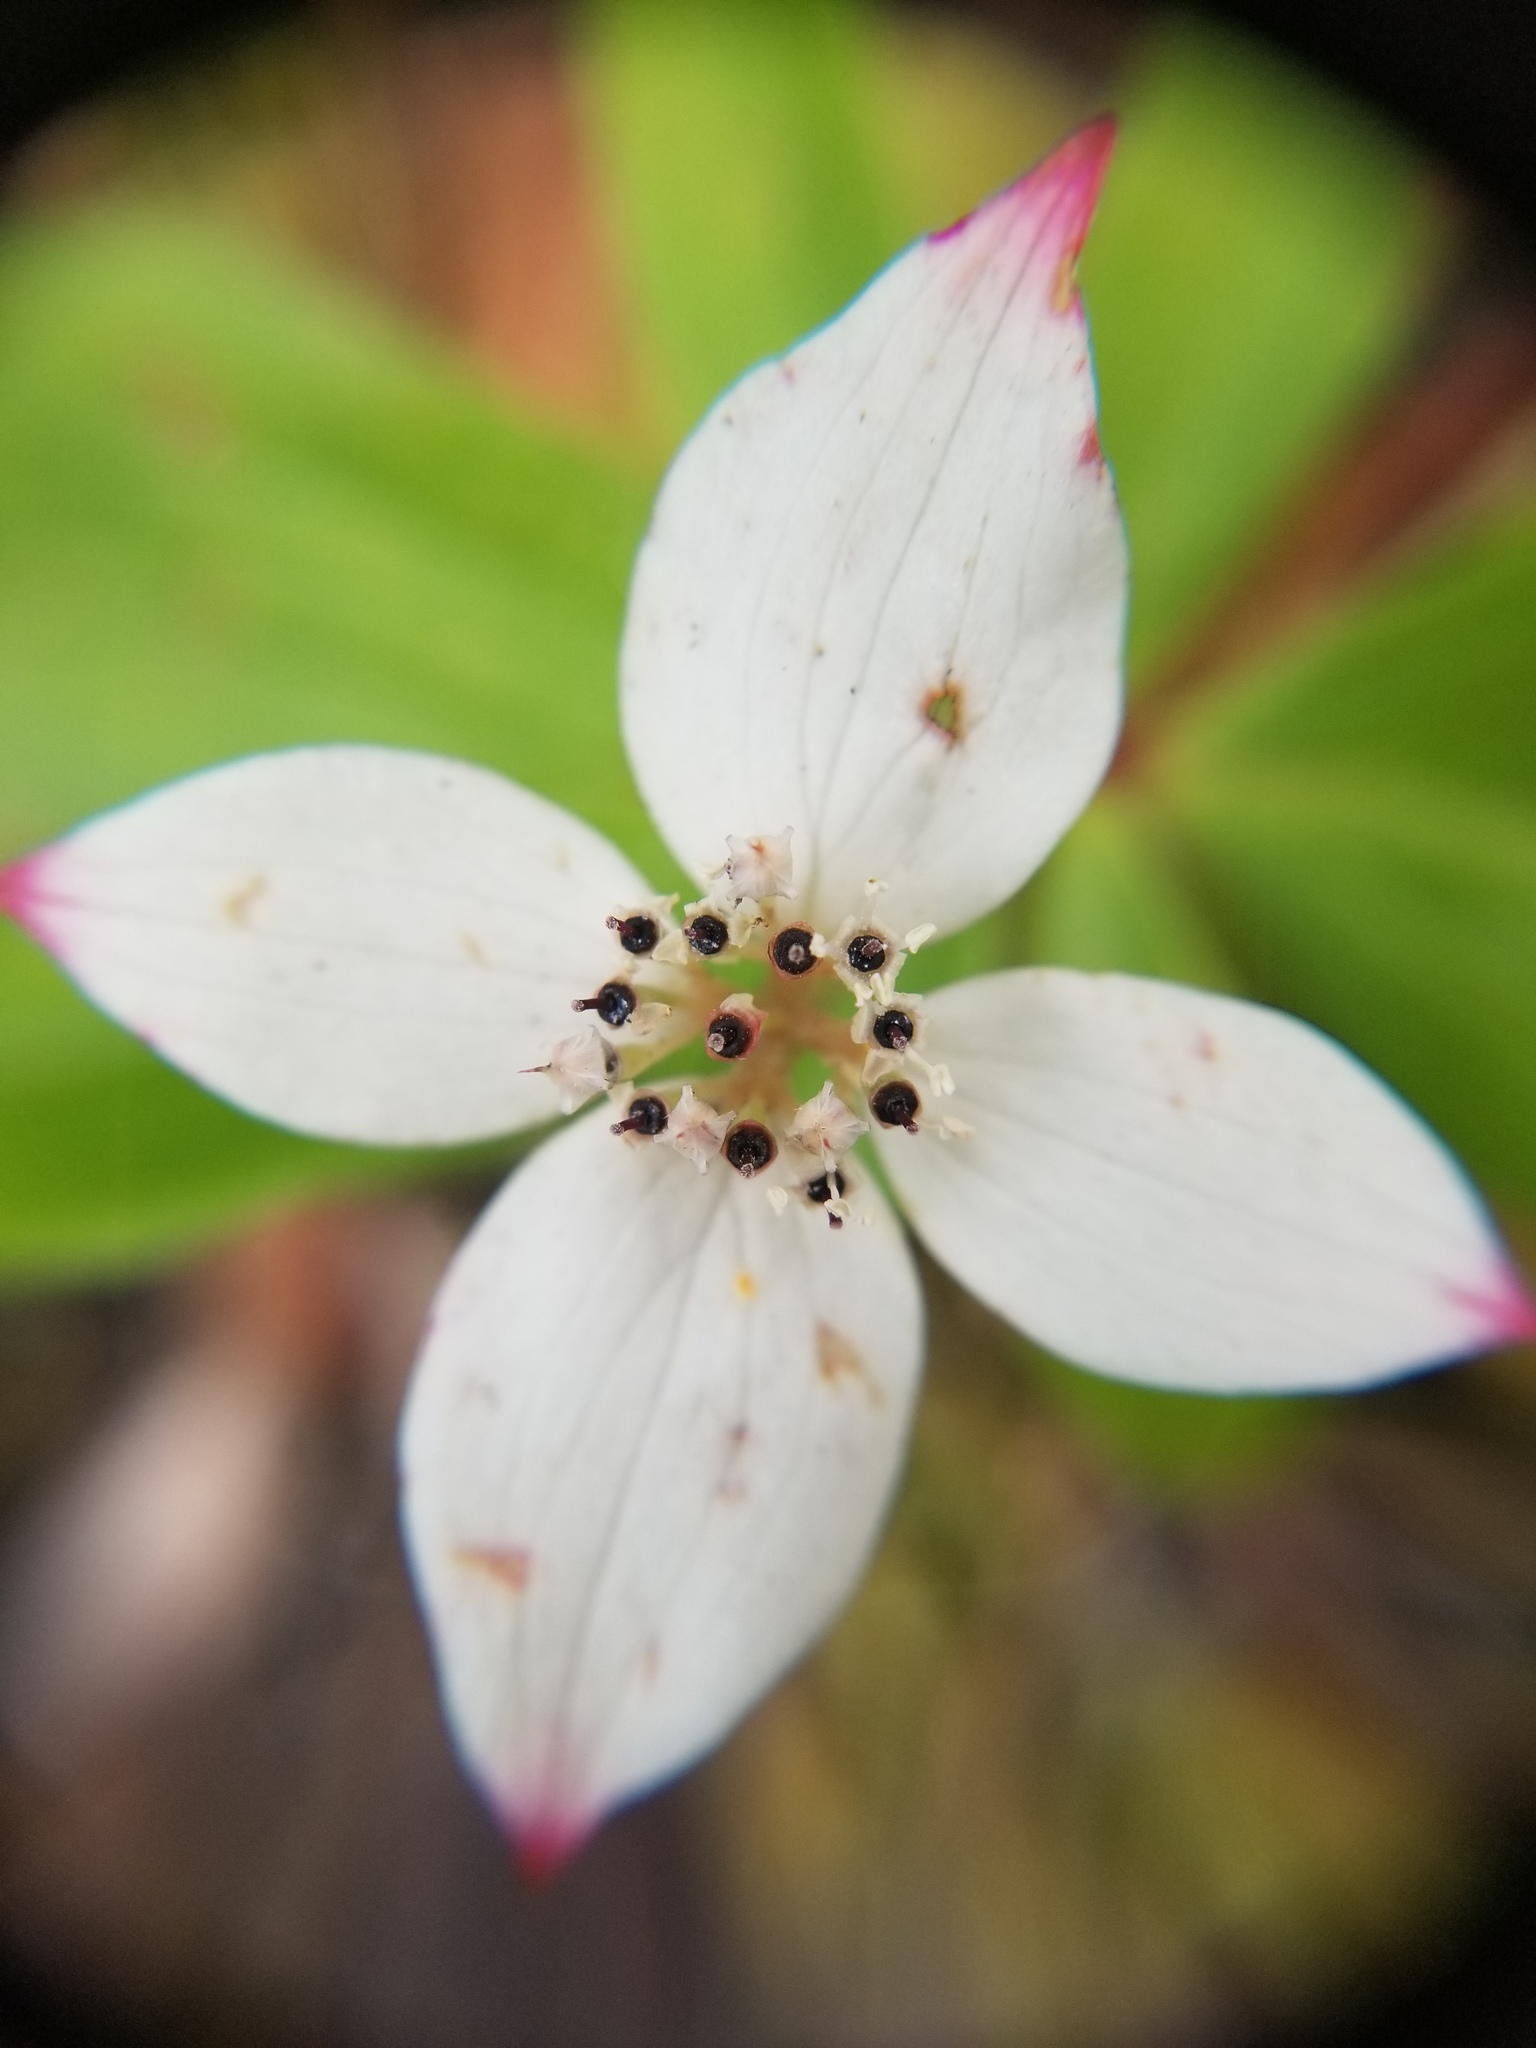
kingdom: Plantae
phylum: Tracheophyta
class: Magnoliopsida
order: Cornales
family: Cornaceae
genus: Cornus
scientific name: Cornus canadensis
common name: Creeping dogwood
